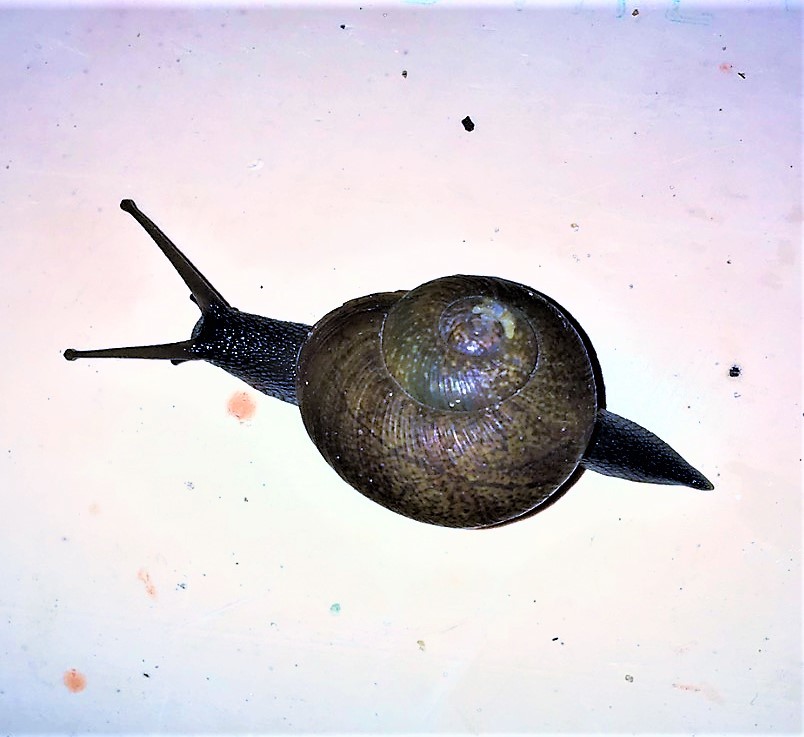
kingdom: Animalia
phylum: Mollusca
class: Gastropoda
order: Stylommatophora
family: Zachrysiidae
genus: Zachrysia
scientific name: Zachrysia provisoria
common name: Garden zachrysia
